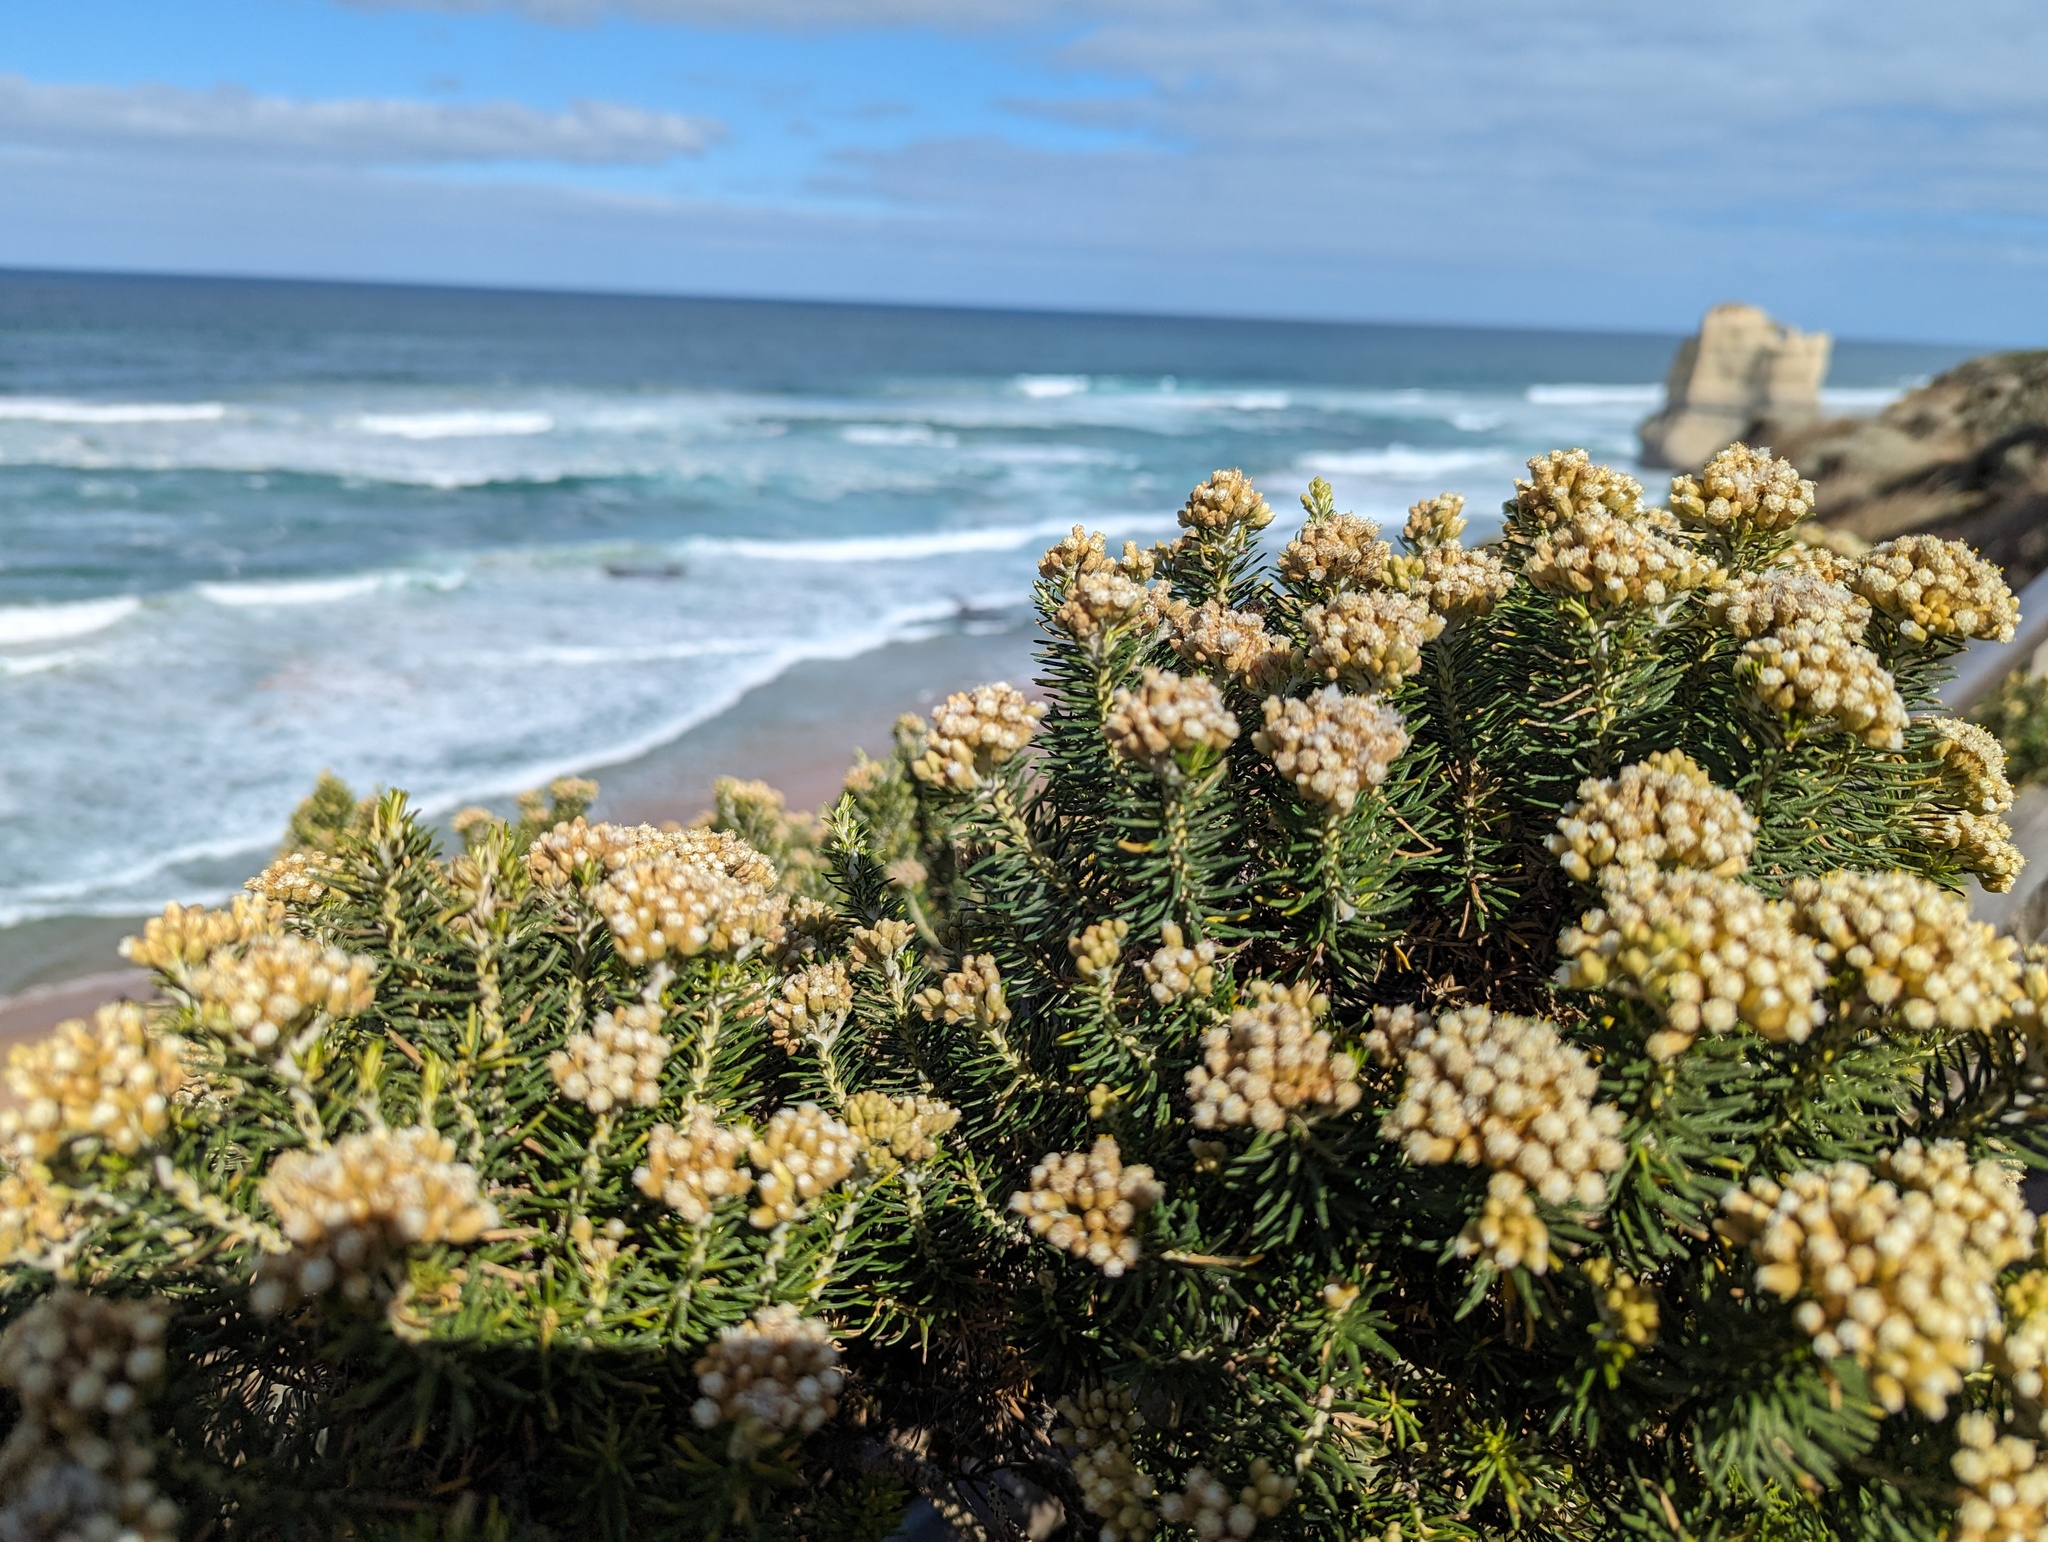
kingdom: Plantae
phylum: Tracheophyta
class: Magnoliopsida
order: Asterales
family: Asteraceae
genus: Ozothamnus
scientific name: Ozothamnus cinereus
